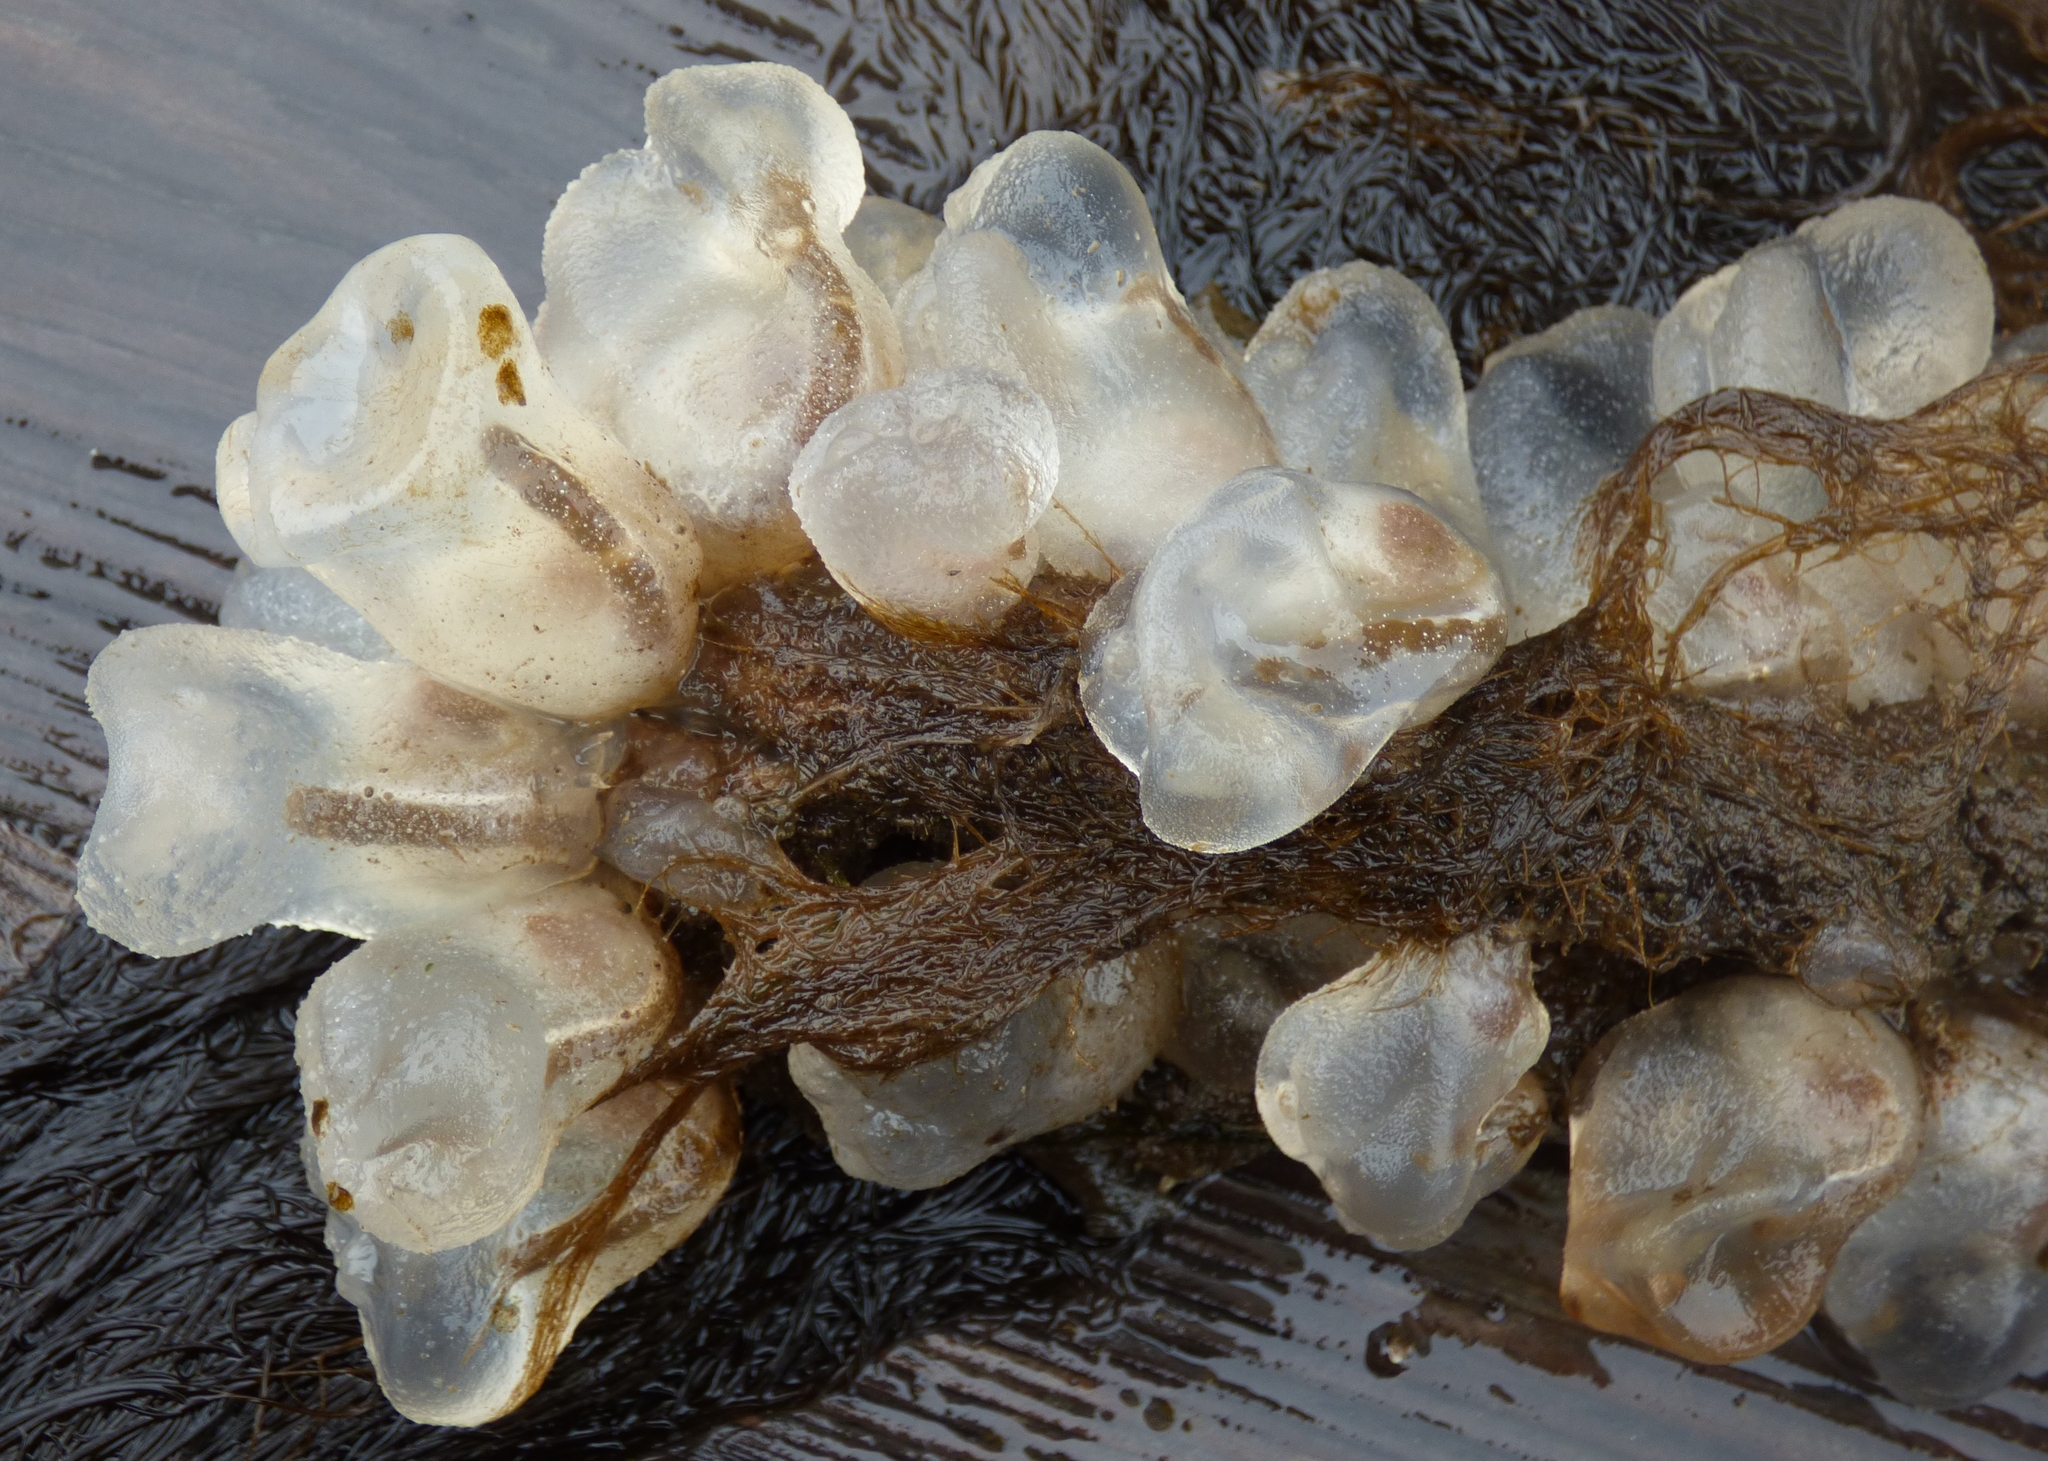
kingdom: Animalia
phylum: Chordata
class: Ascidiacea
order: Phlebobranchia
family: Corellidae
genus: Corella
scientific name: Corella willmeriana
